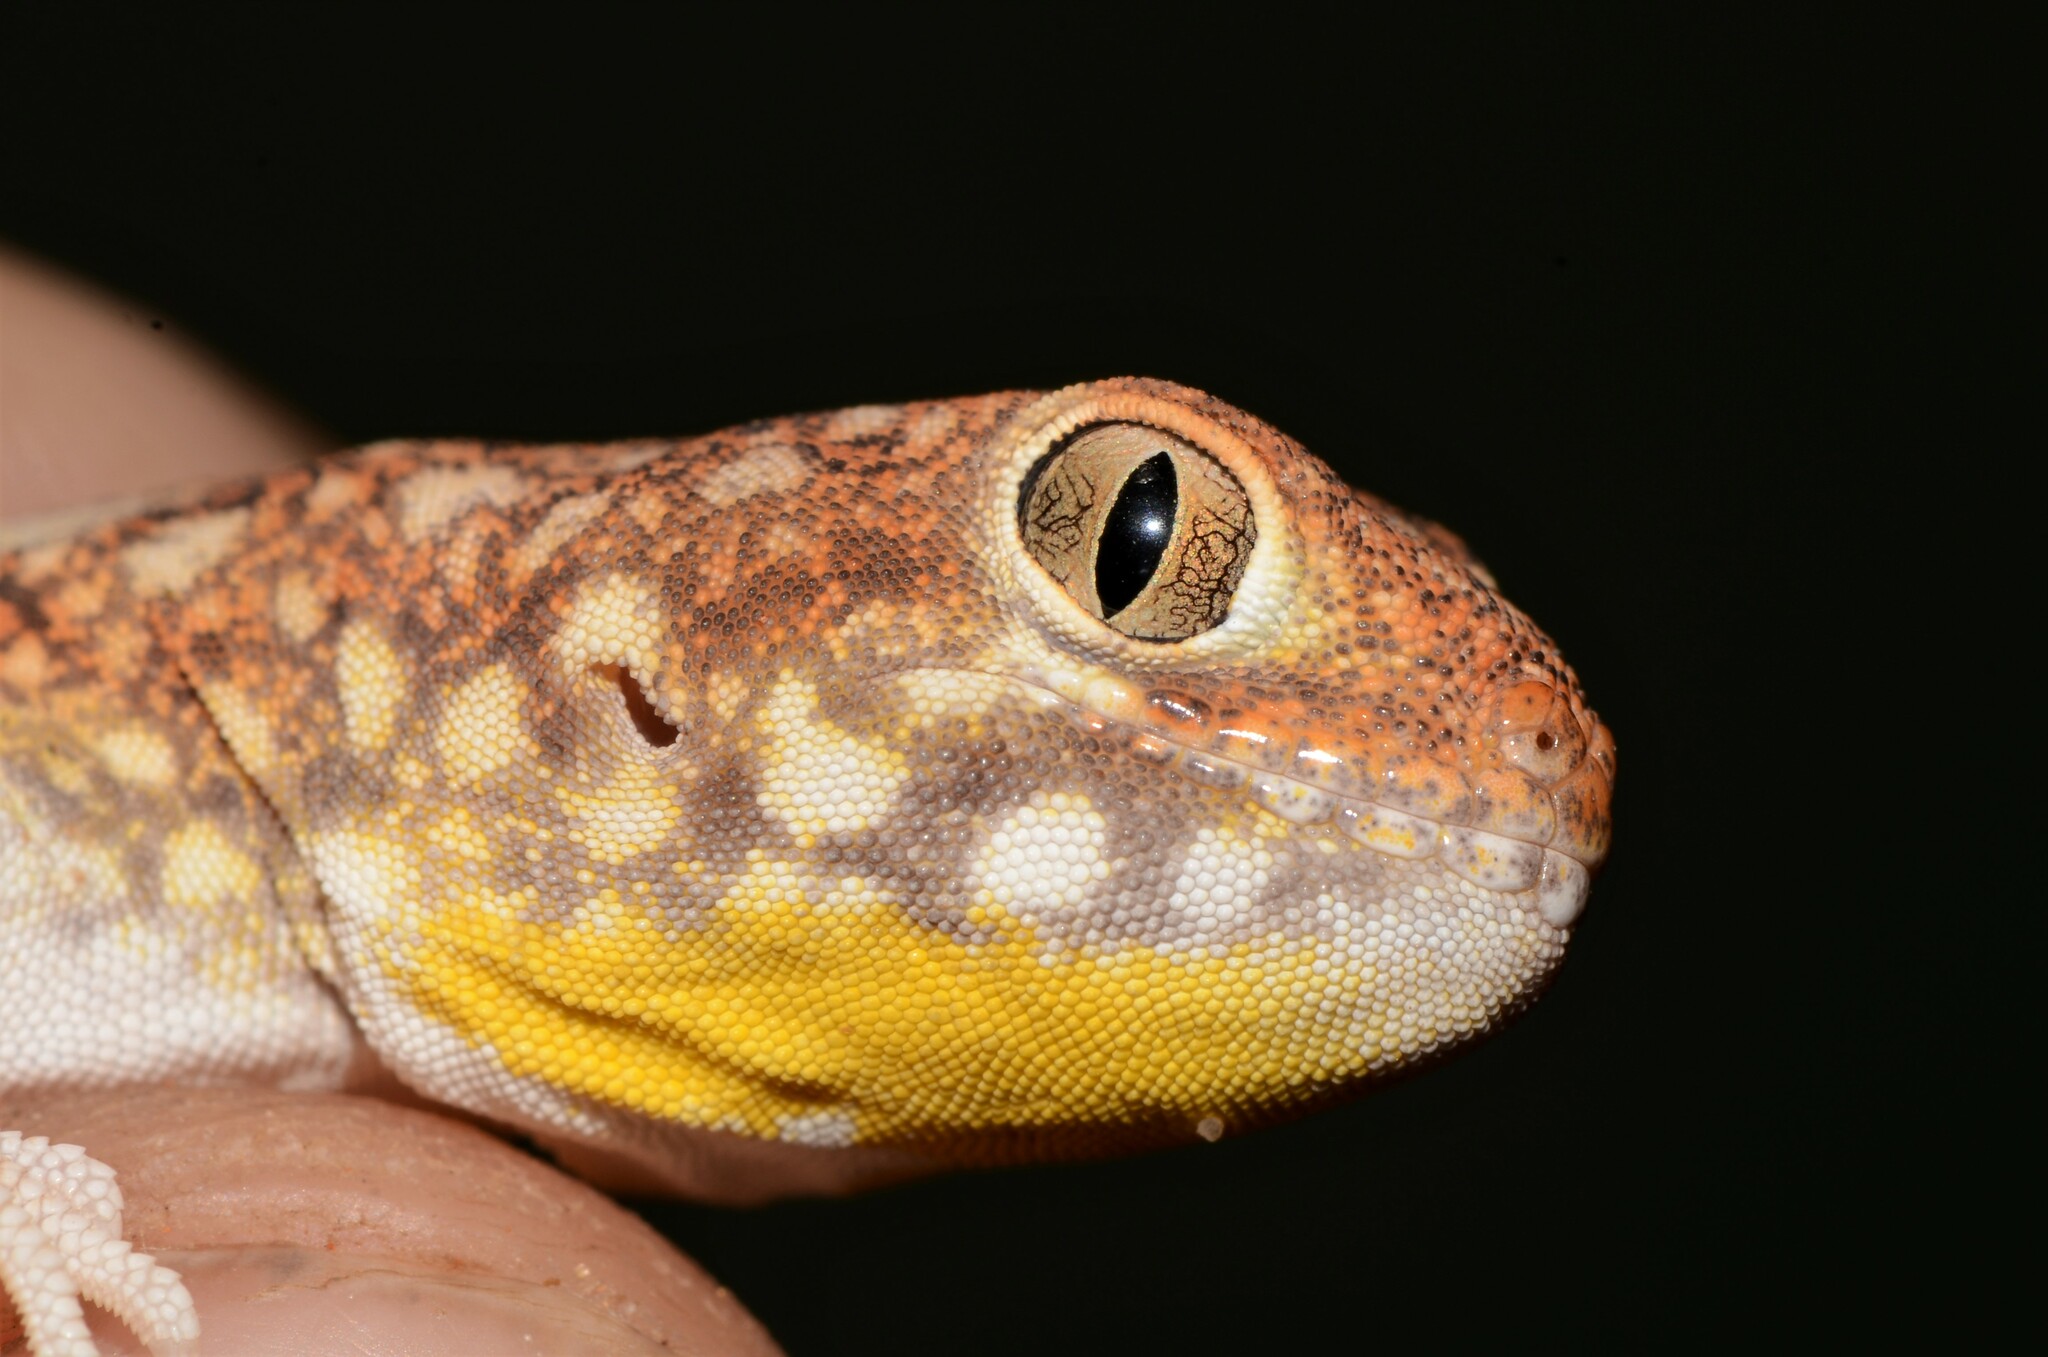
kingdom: Animalia
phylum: Chordata
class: Squamata
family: Gekkonidae
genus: Ptenopus
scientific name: Ptenopus garrulus
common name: Whistling gecko
